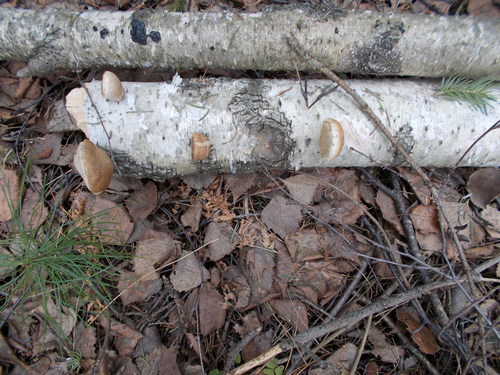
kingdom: Fungi
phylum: Basidiomycota
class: Agaricomycetes
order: Polyporales
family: Fomitopsidaceae
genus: Fomitopsis
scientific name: Fomitopsis betulina
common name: Birch polypore
